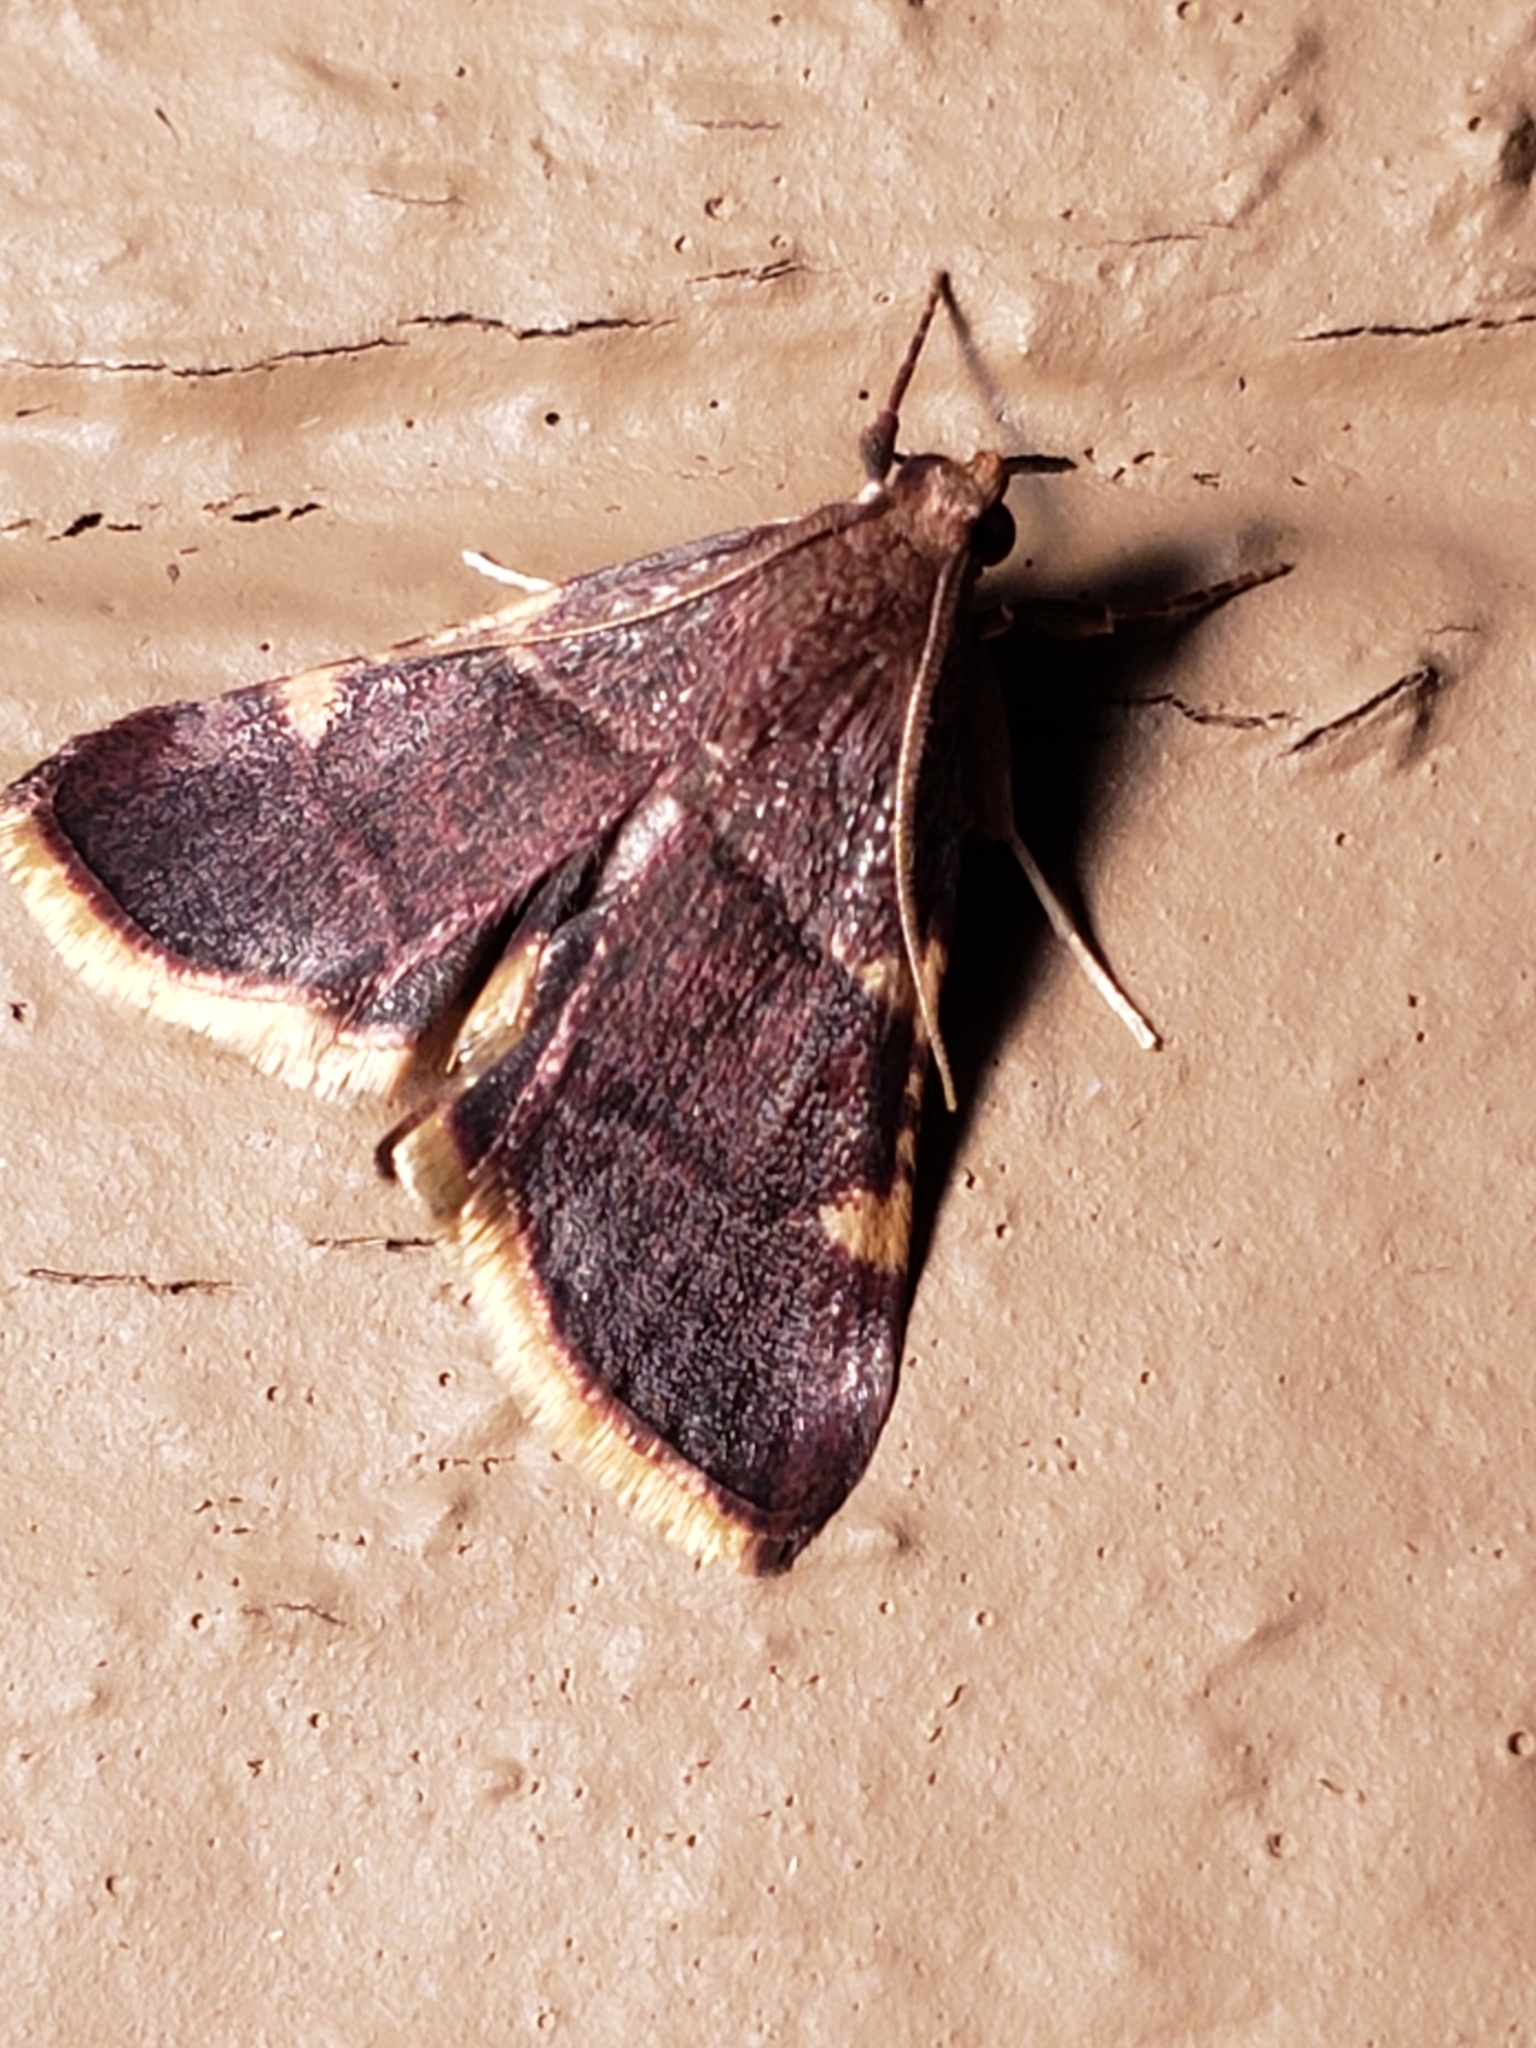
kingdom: Animalia
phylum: Arthropoda
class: Insecta
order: Lepidoptera
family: Pyralidae
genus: Hypsopygia
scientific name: Hypsopygia olinalis
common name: Yellow-fringed dolichomia moth
